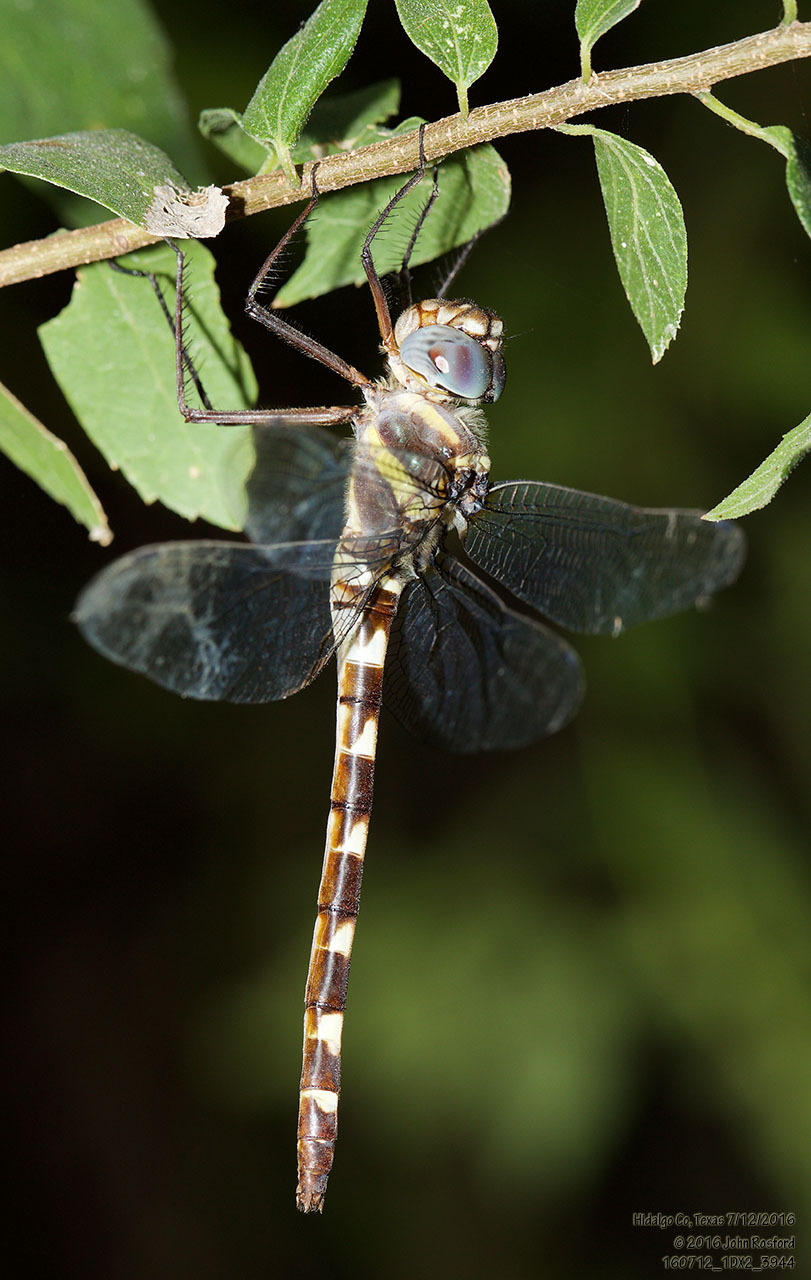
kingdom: Animalia
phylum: Arthropoda
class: Insecta
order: Odonata
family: Macromiidae
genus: Macromia
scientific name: Macromia annulata
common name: Bronzed river cruiser
